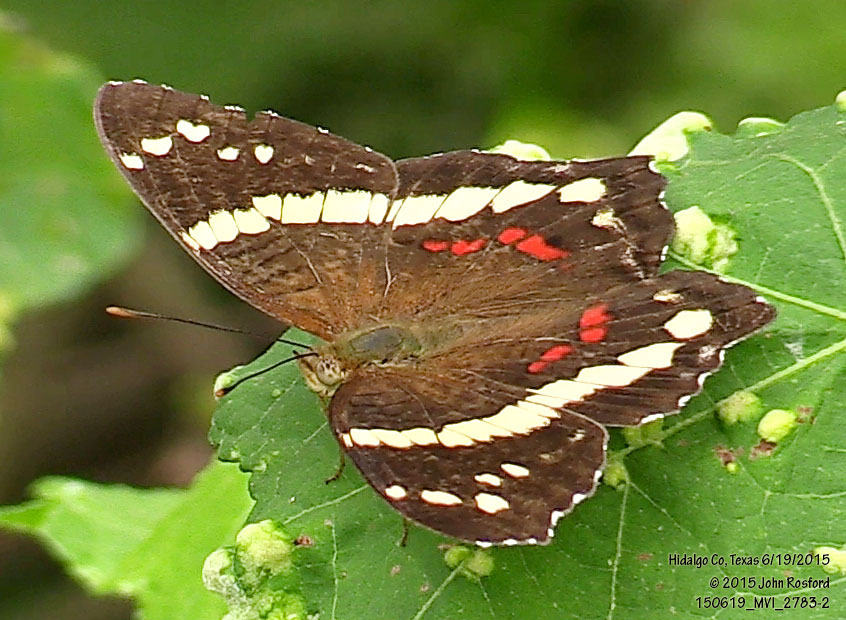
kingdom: Animalia
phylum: Arthropoda
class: Insecta
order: Lepidoptera
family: Nymphalidae
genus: Anartia
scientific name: Anartia fatima
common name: Banded peacock
